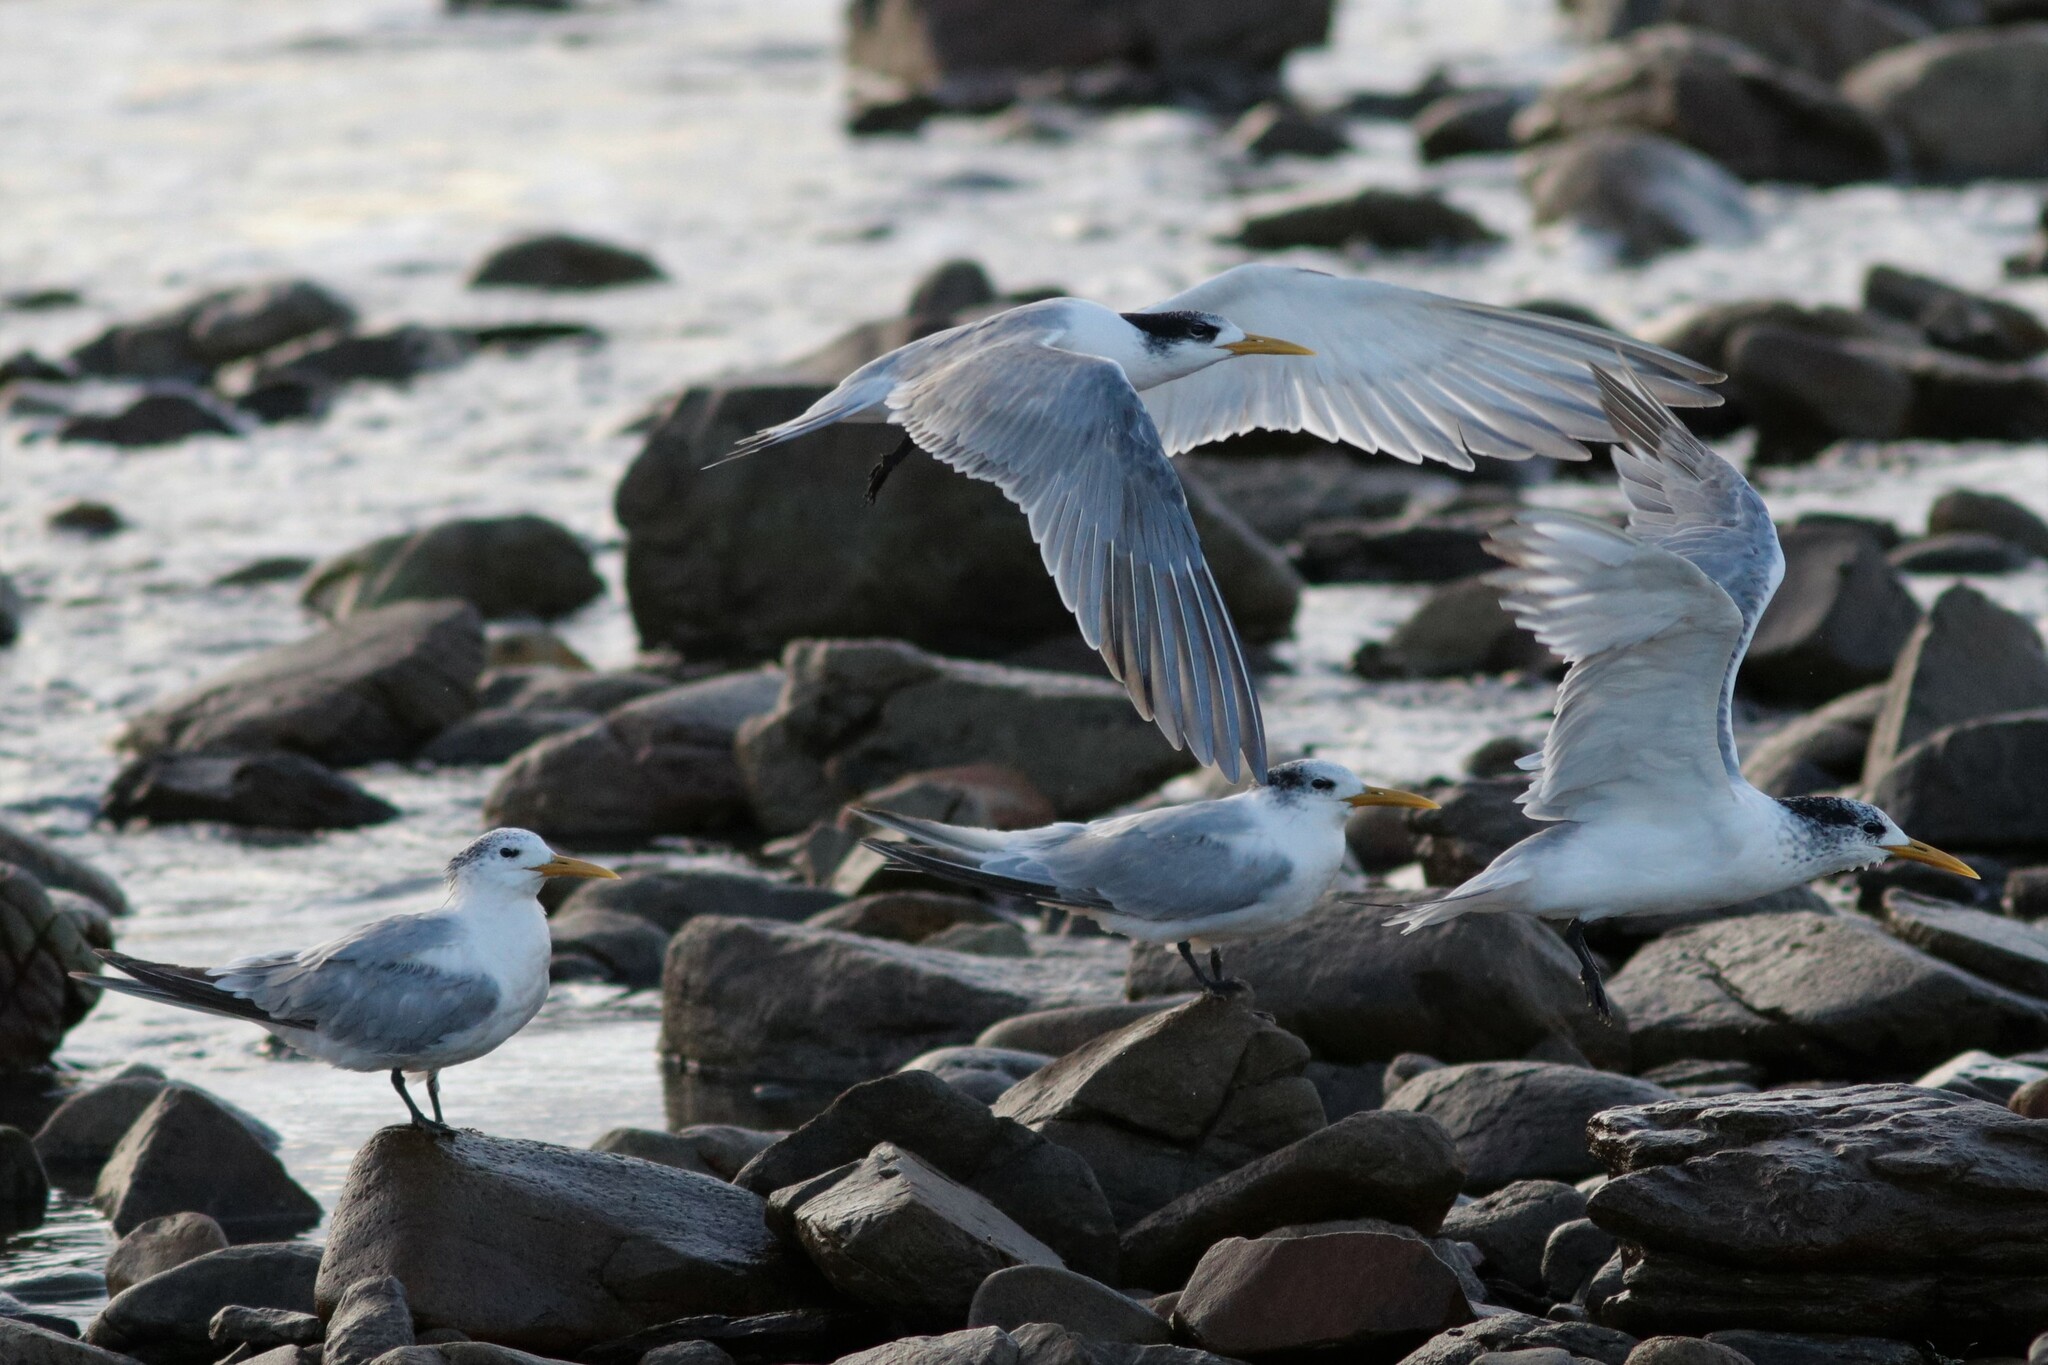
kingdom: Animalia
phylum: Chordata
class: Aves
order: Charadriiformes
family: Laridae
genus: Thalasseus
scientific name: Thalasseus bergii
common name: Greater crested tern
